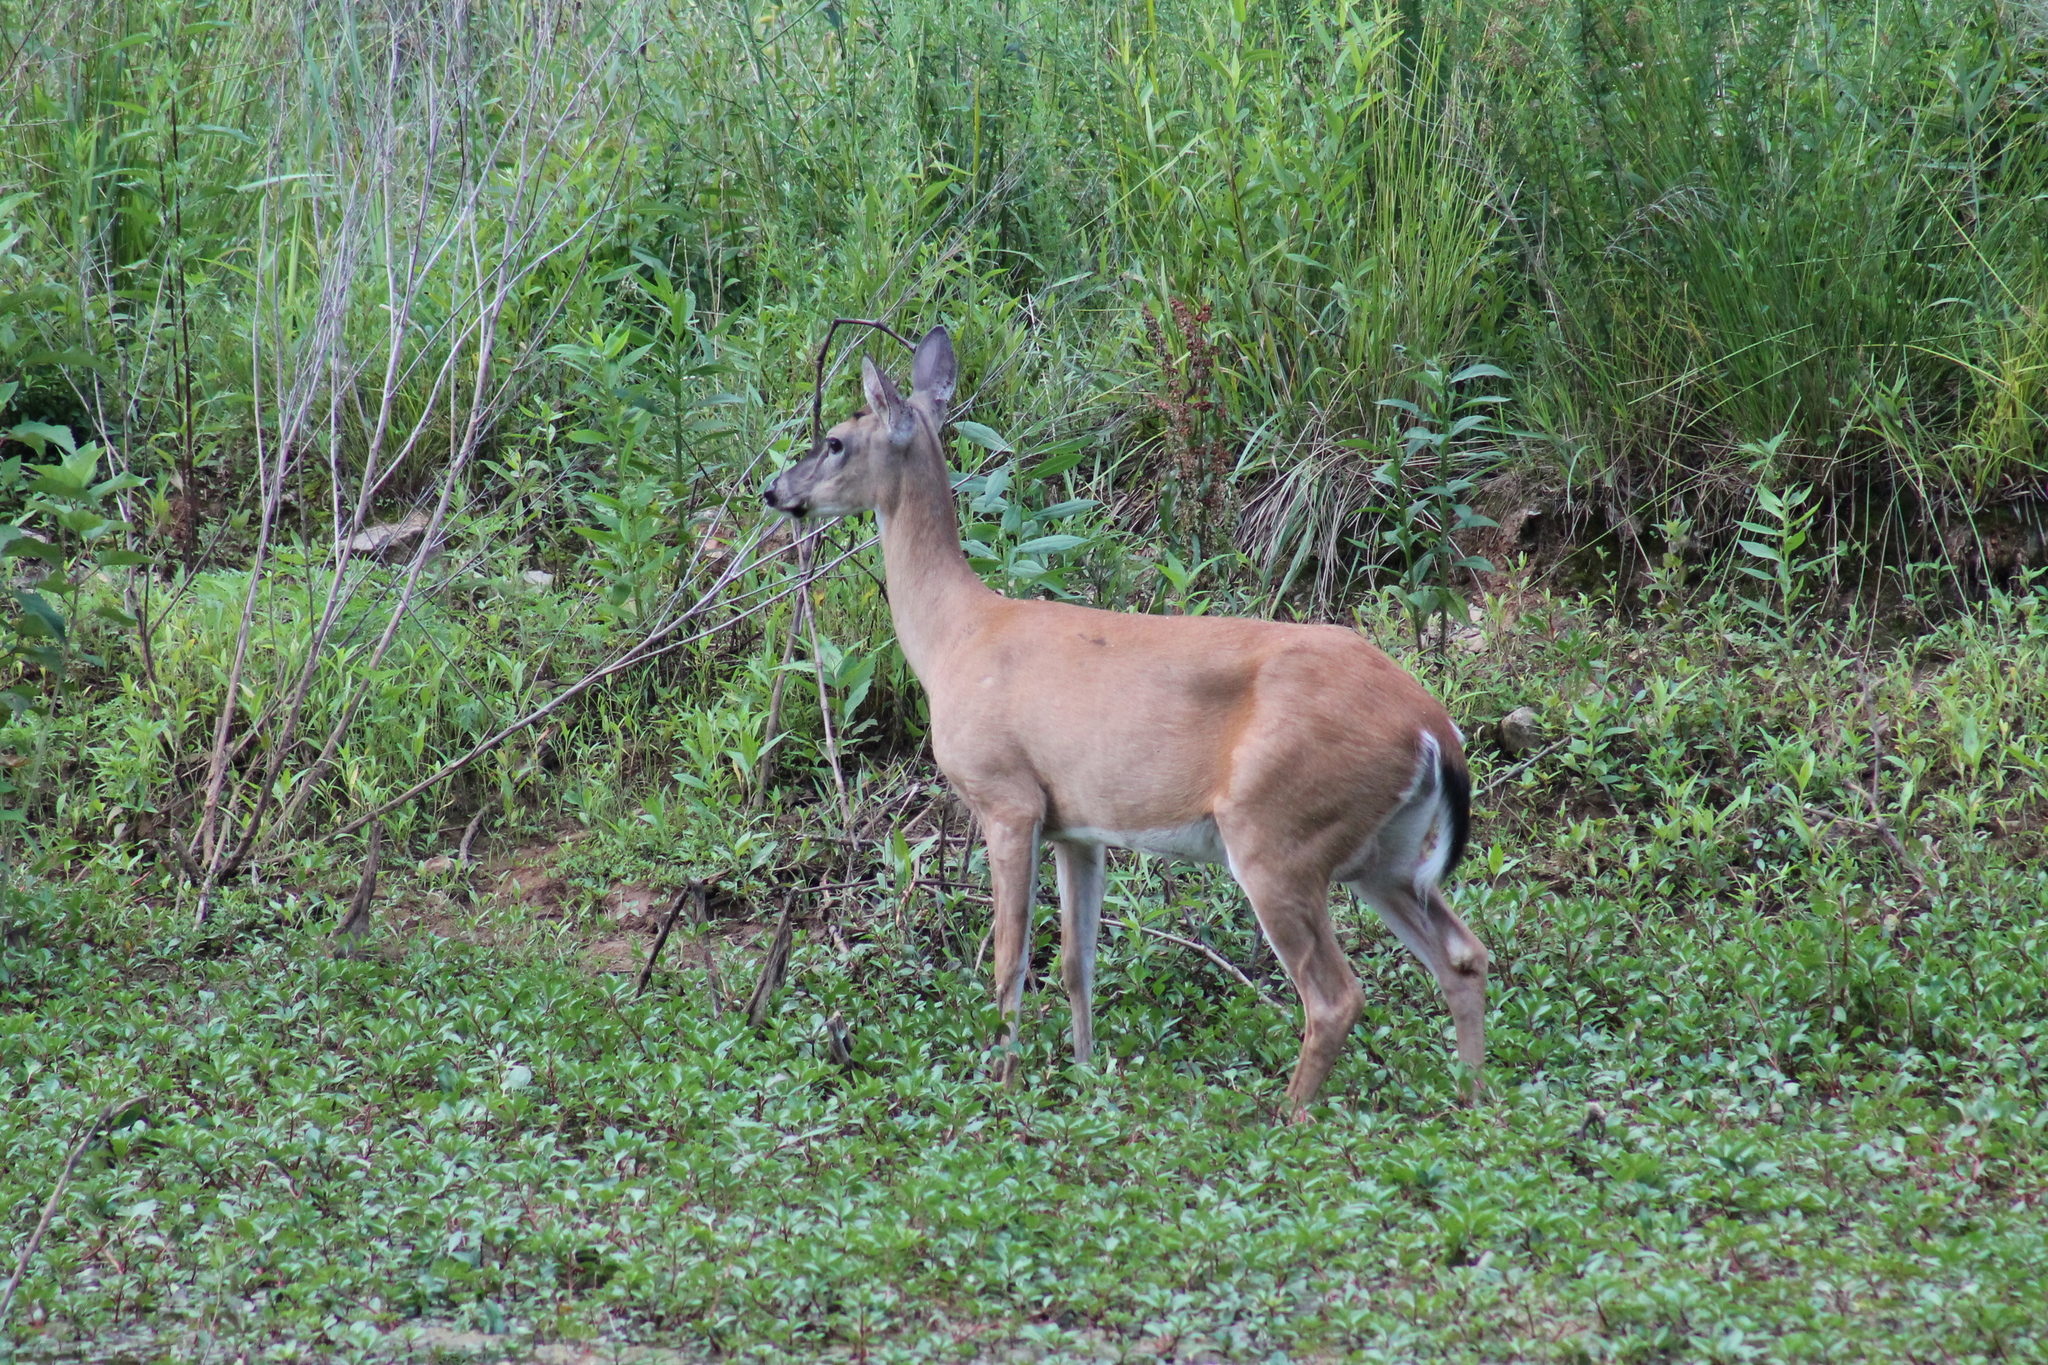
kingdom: Animalia
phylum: Chordata
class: Mammalia
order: Artiodactyla
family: Cervidae
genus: Odocoileus
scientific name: Odocoileus virginianus
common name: White-tailed deer
